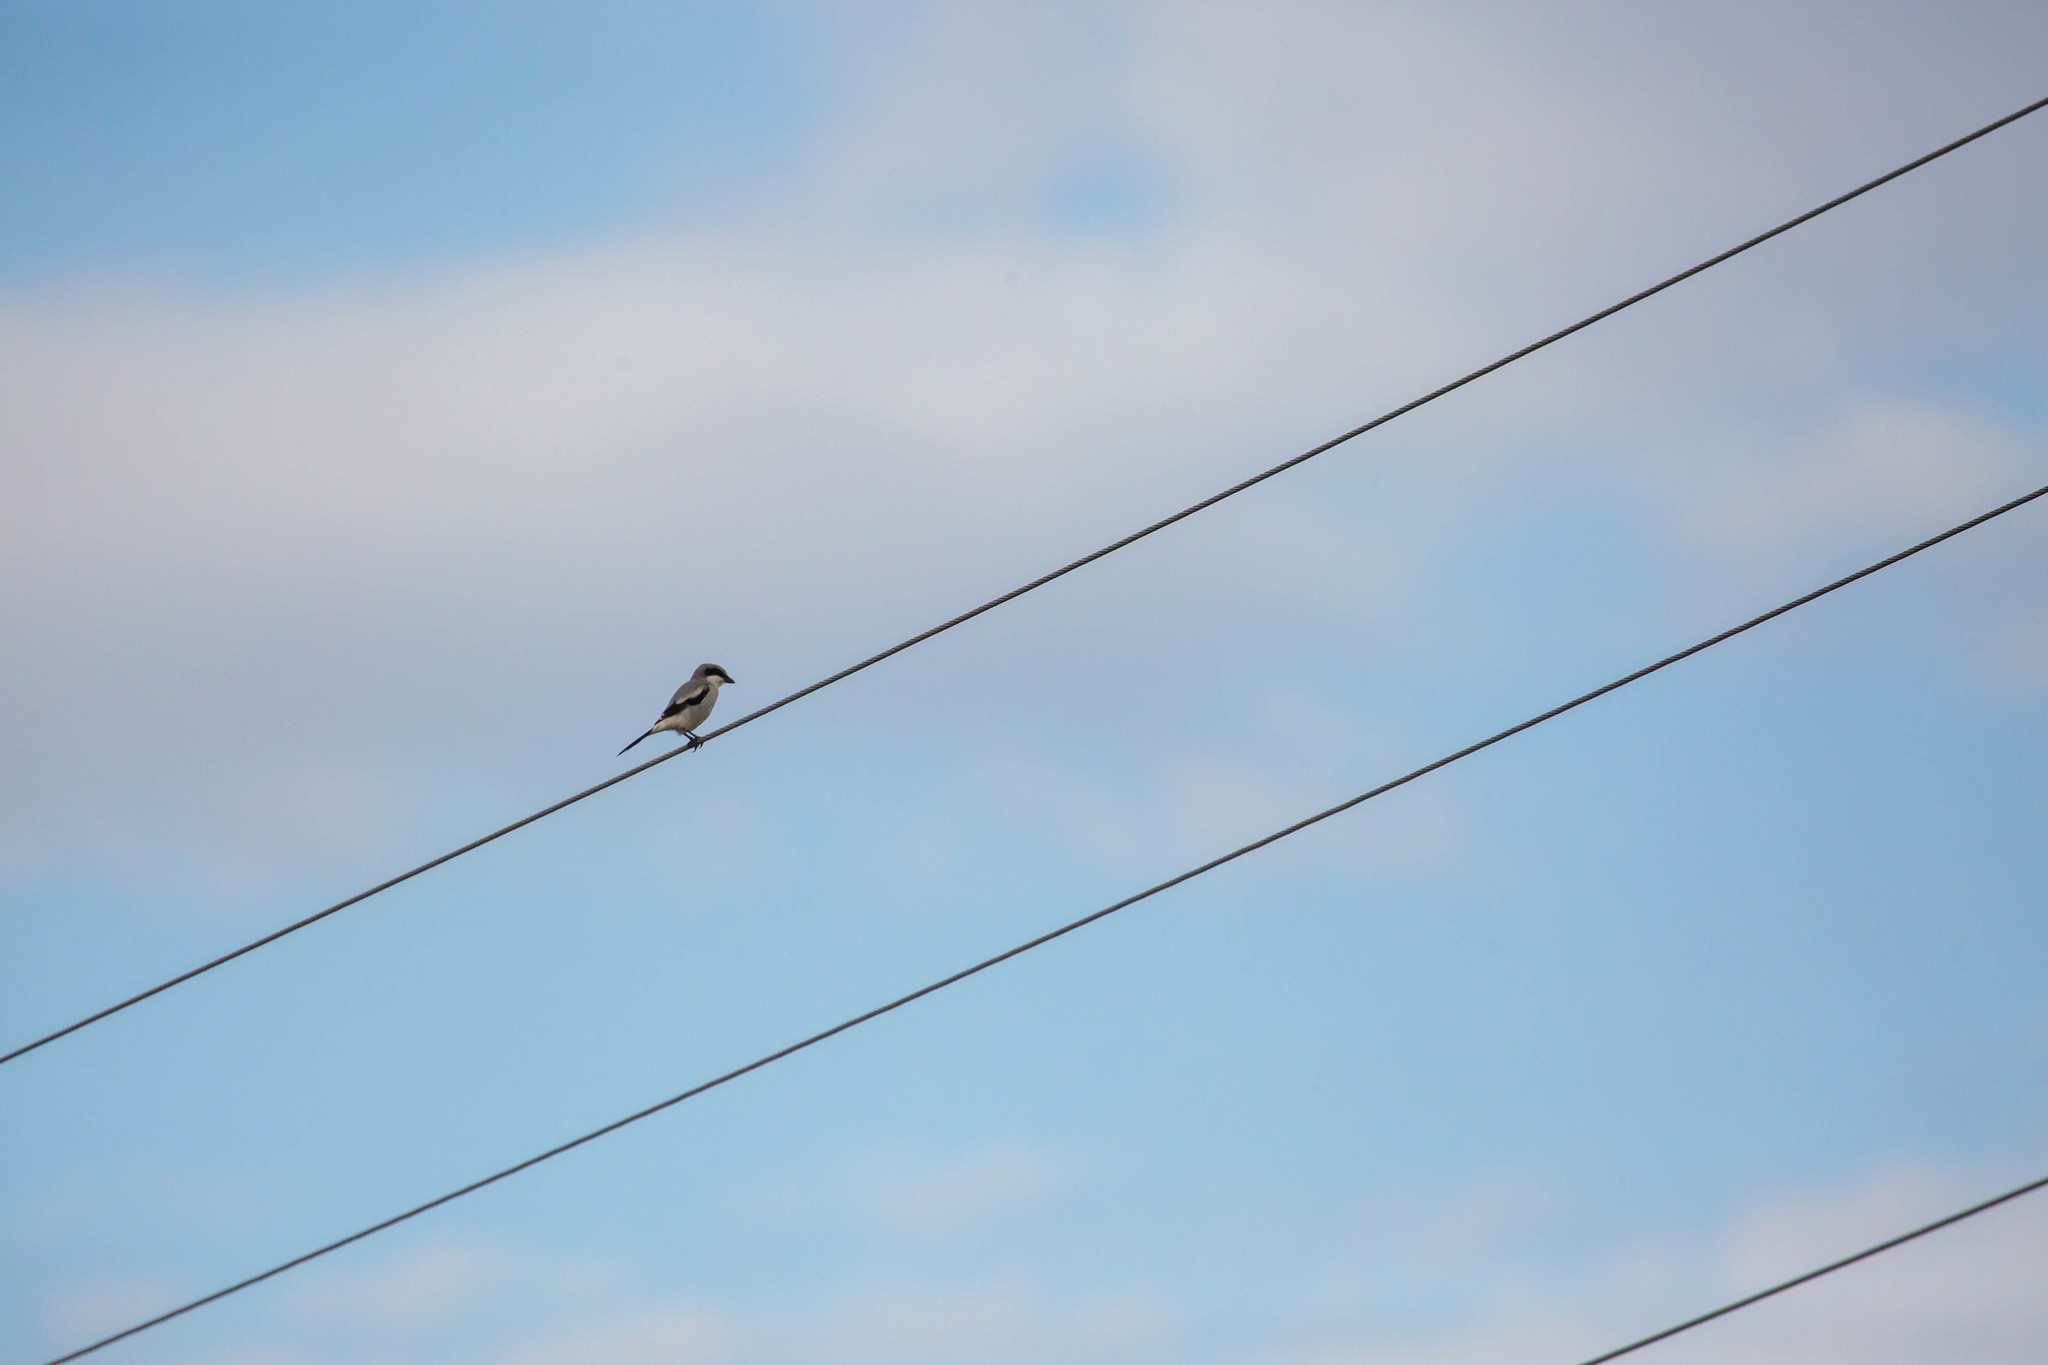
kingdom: Animalia
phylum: Chordata
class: Aves
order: Passeriformes
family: Laniidae
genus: Lanius
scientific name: Lanius ludovicianus
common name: Loggerhead shrike
